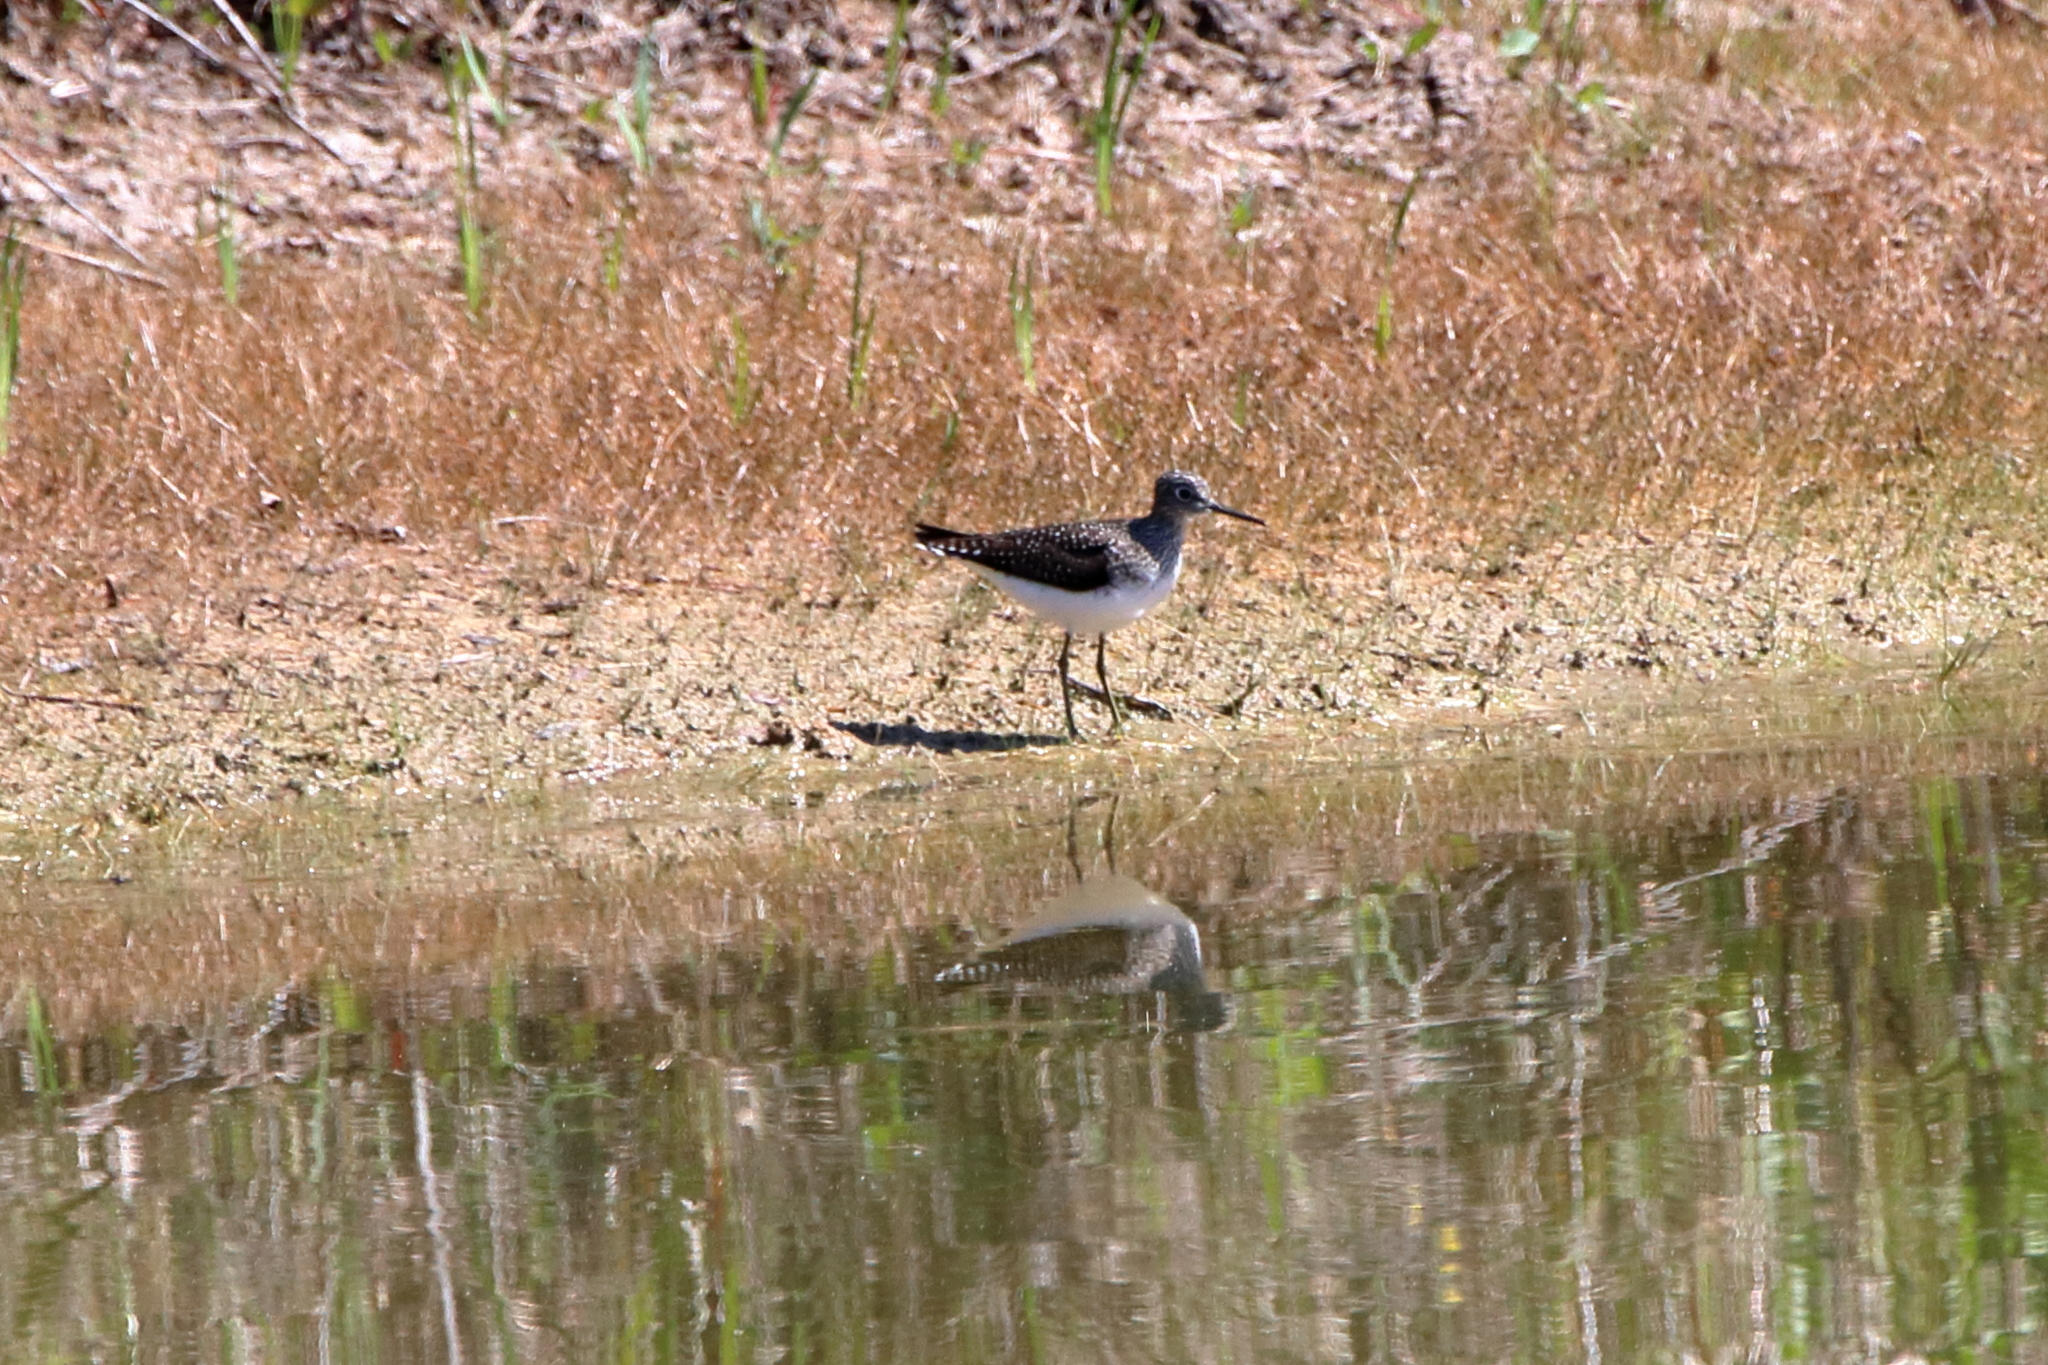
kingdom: Animalia
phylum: Chordata
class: Aves
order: Charadriiformes
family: Scolopacidae
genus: Tringa
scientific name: Tringa solitaria
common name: Solitary sandpiper
